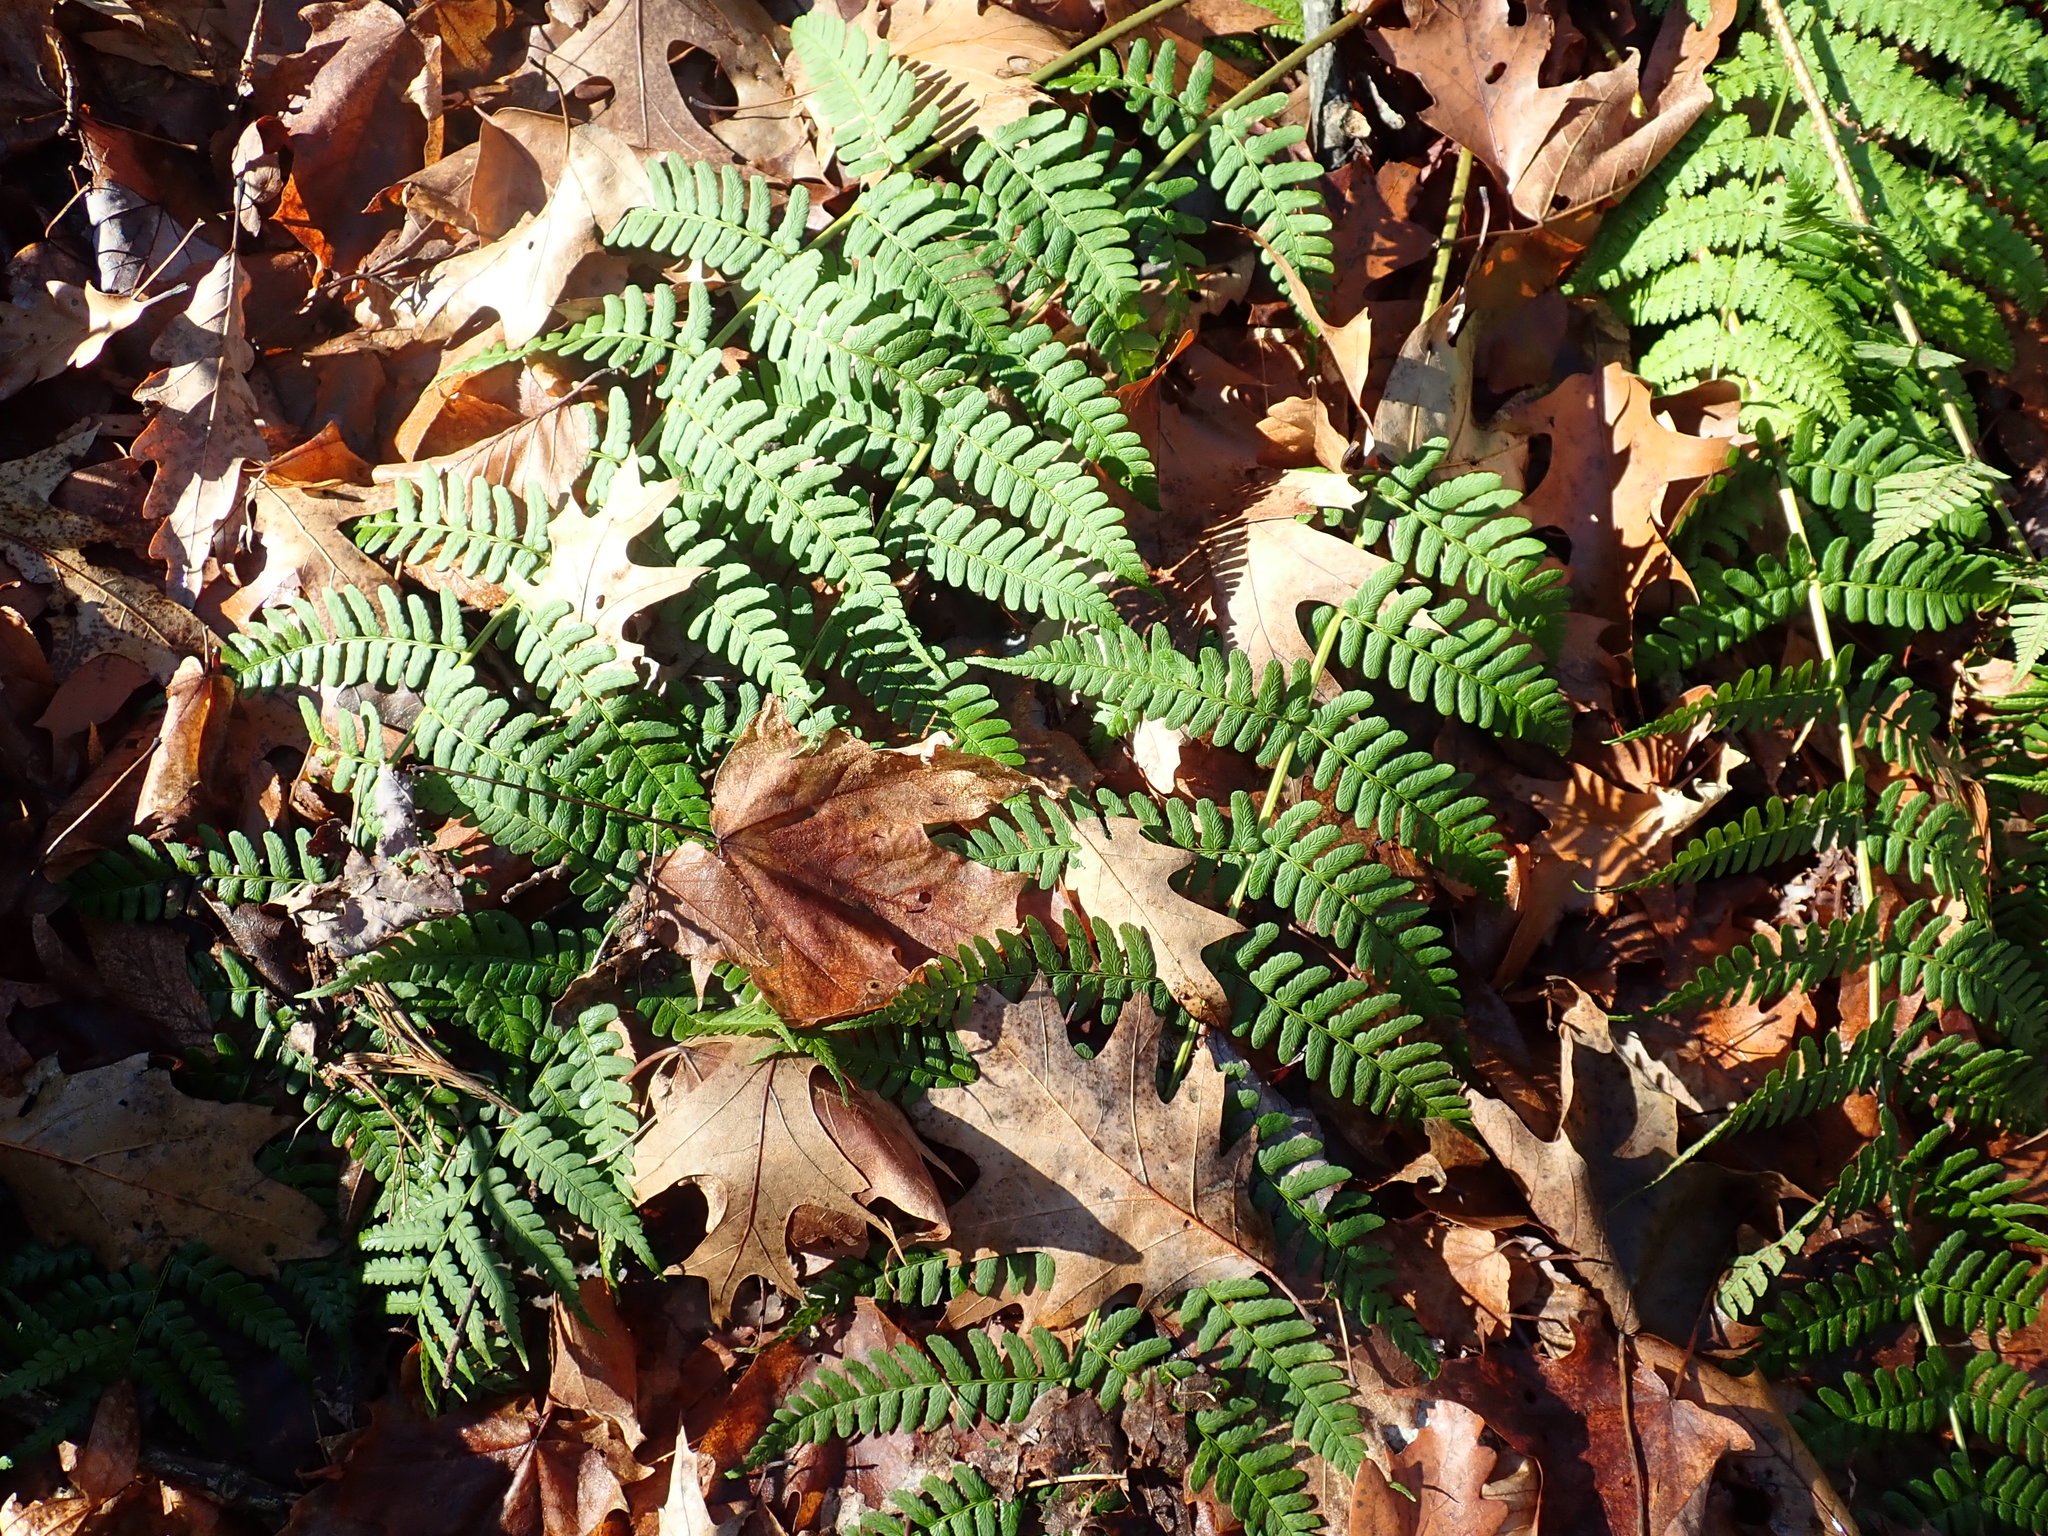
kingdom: Plantae
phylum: Tracheophyta
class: Polypodiopsida
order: Polypodiales
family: Dryopteridaceae
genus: Dryopteris
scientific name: Dryopteris marginalis
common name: Marginal wood fern
